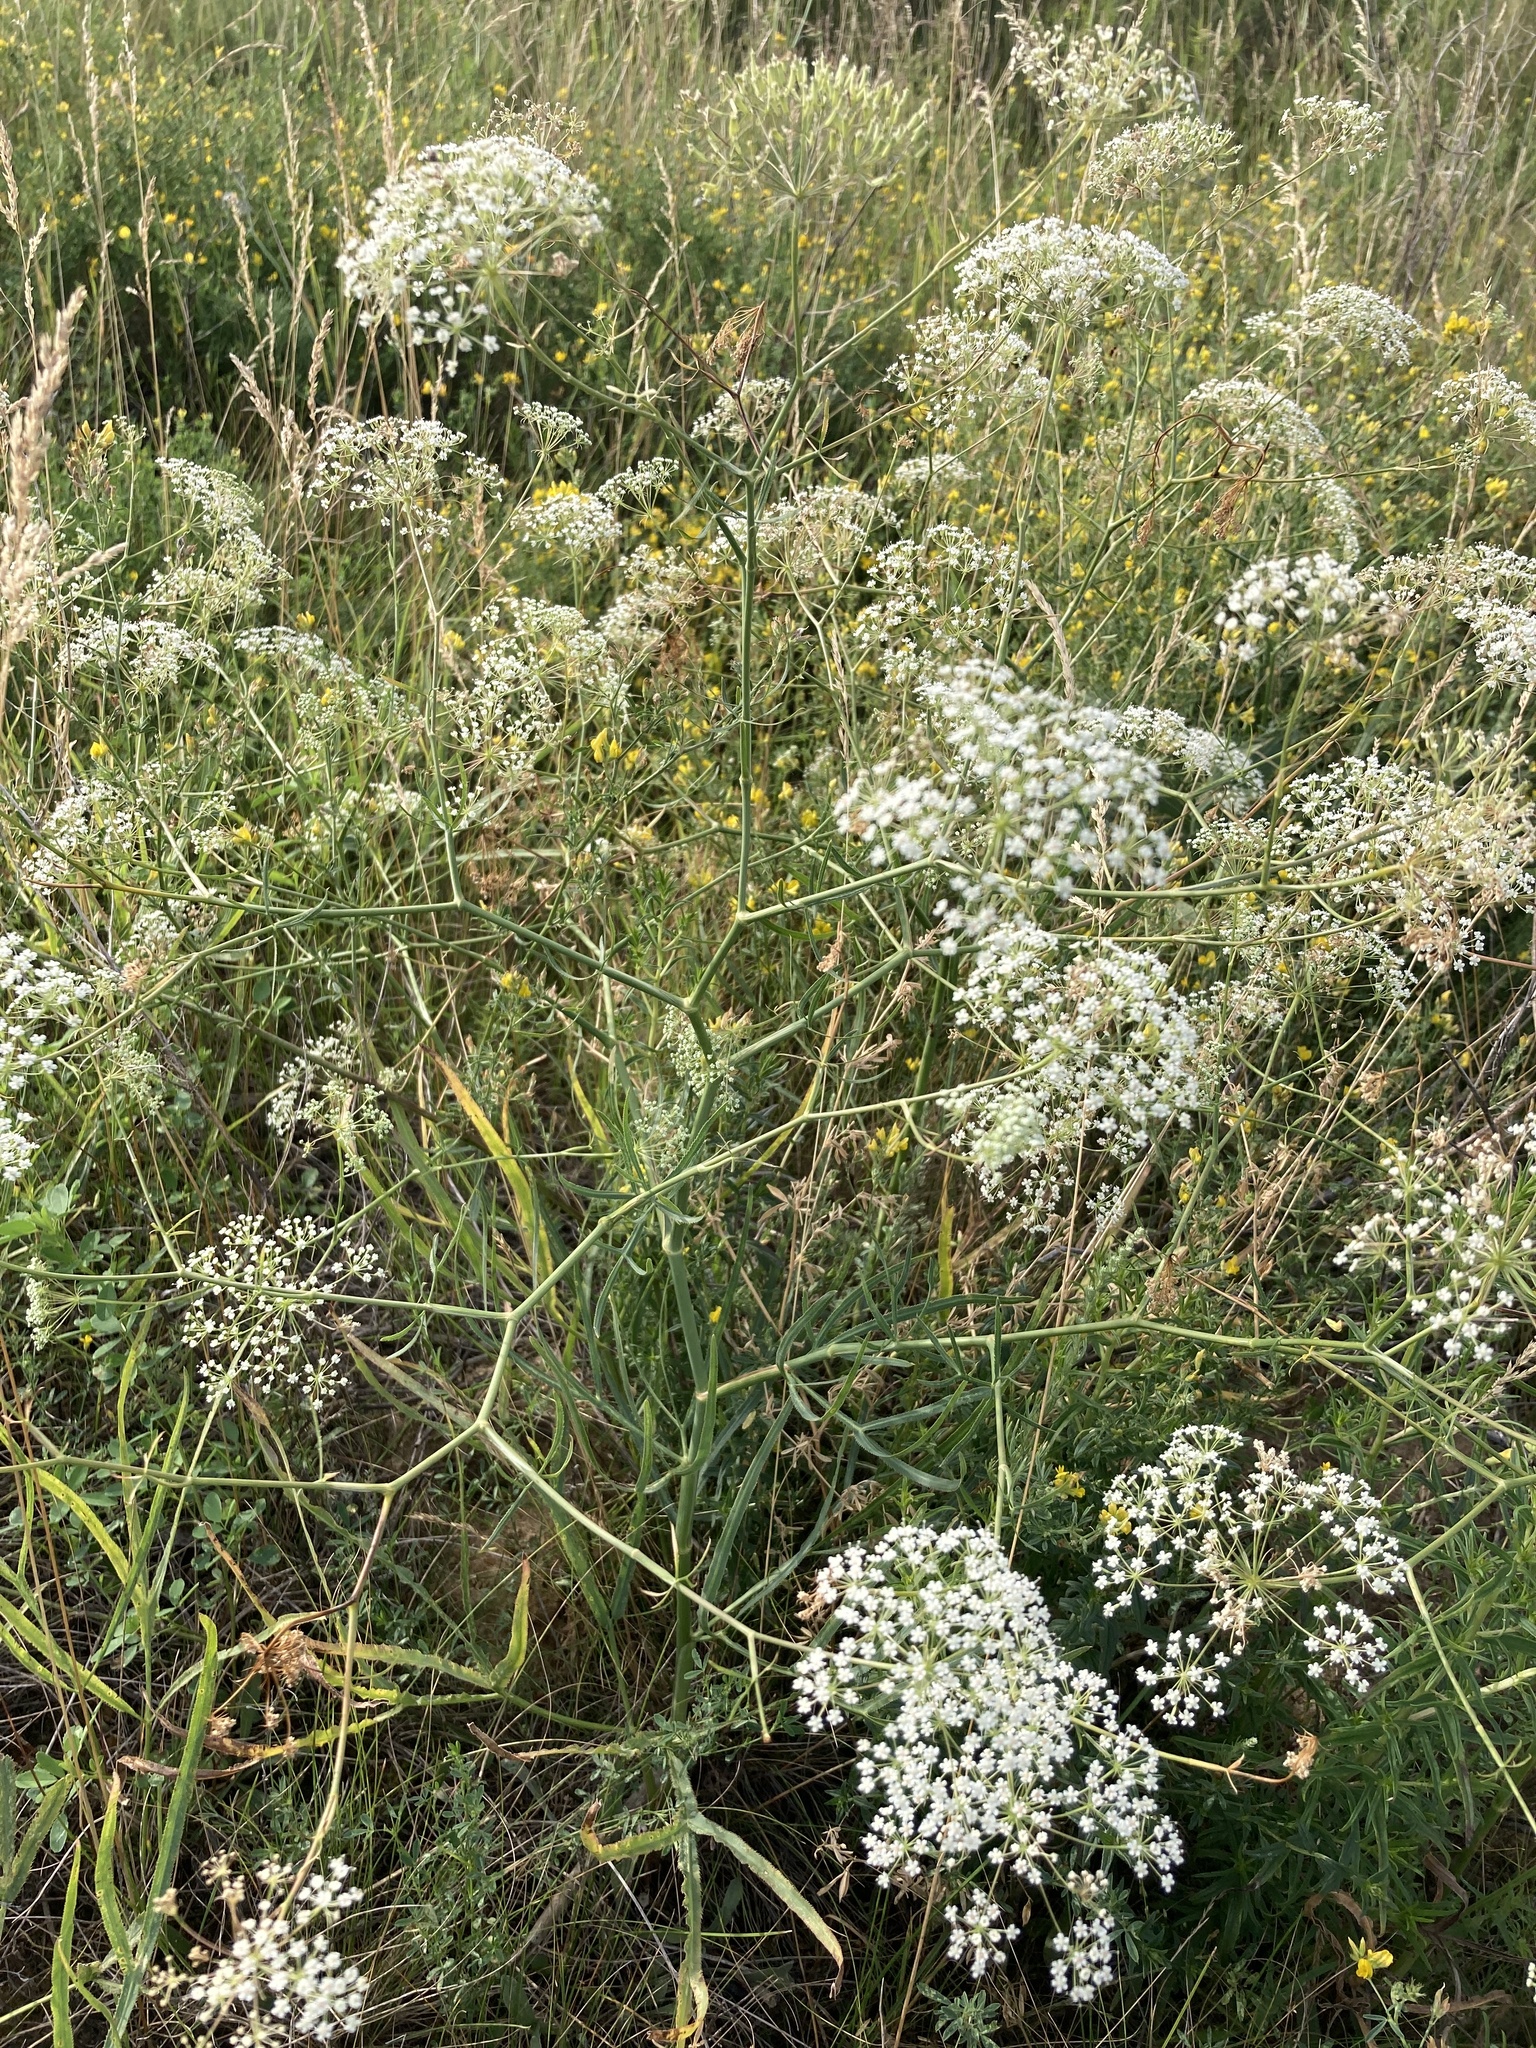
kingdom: Plantae
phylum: Tracheophyta
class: Magnoliopsida
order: Apiales
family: Apiaceae
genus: Falcaria
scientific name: Falcaria vulgaris
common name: Longleaf
